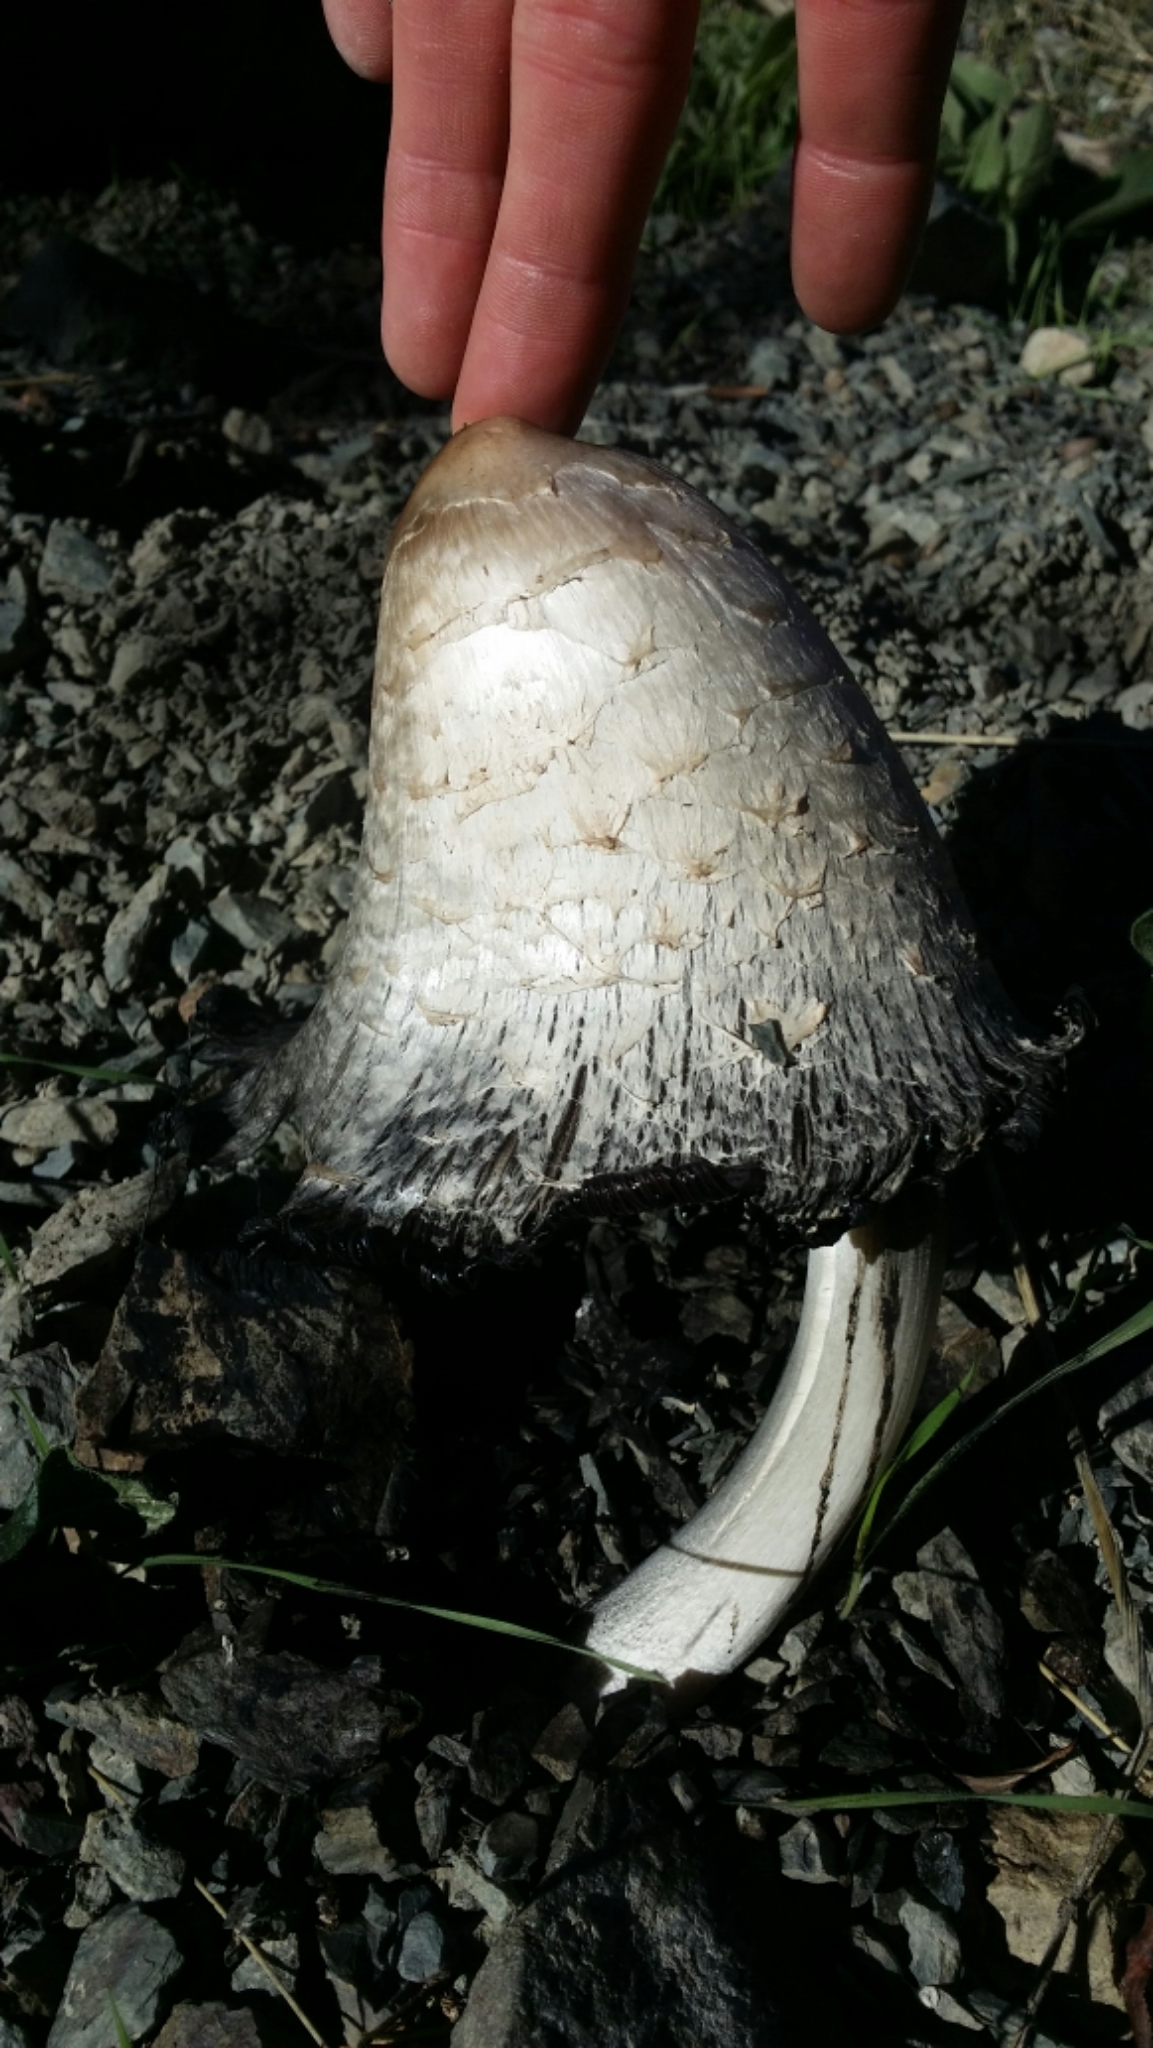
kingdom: Fungi
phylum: Basidiomycota
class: Agaricomycetes
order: Agaricales
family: Agaricaceae
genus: Coprinus
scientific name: Coprinus comatus
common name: Lawyer's wig
